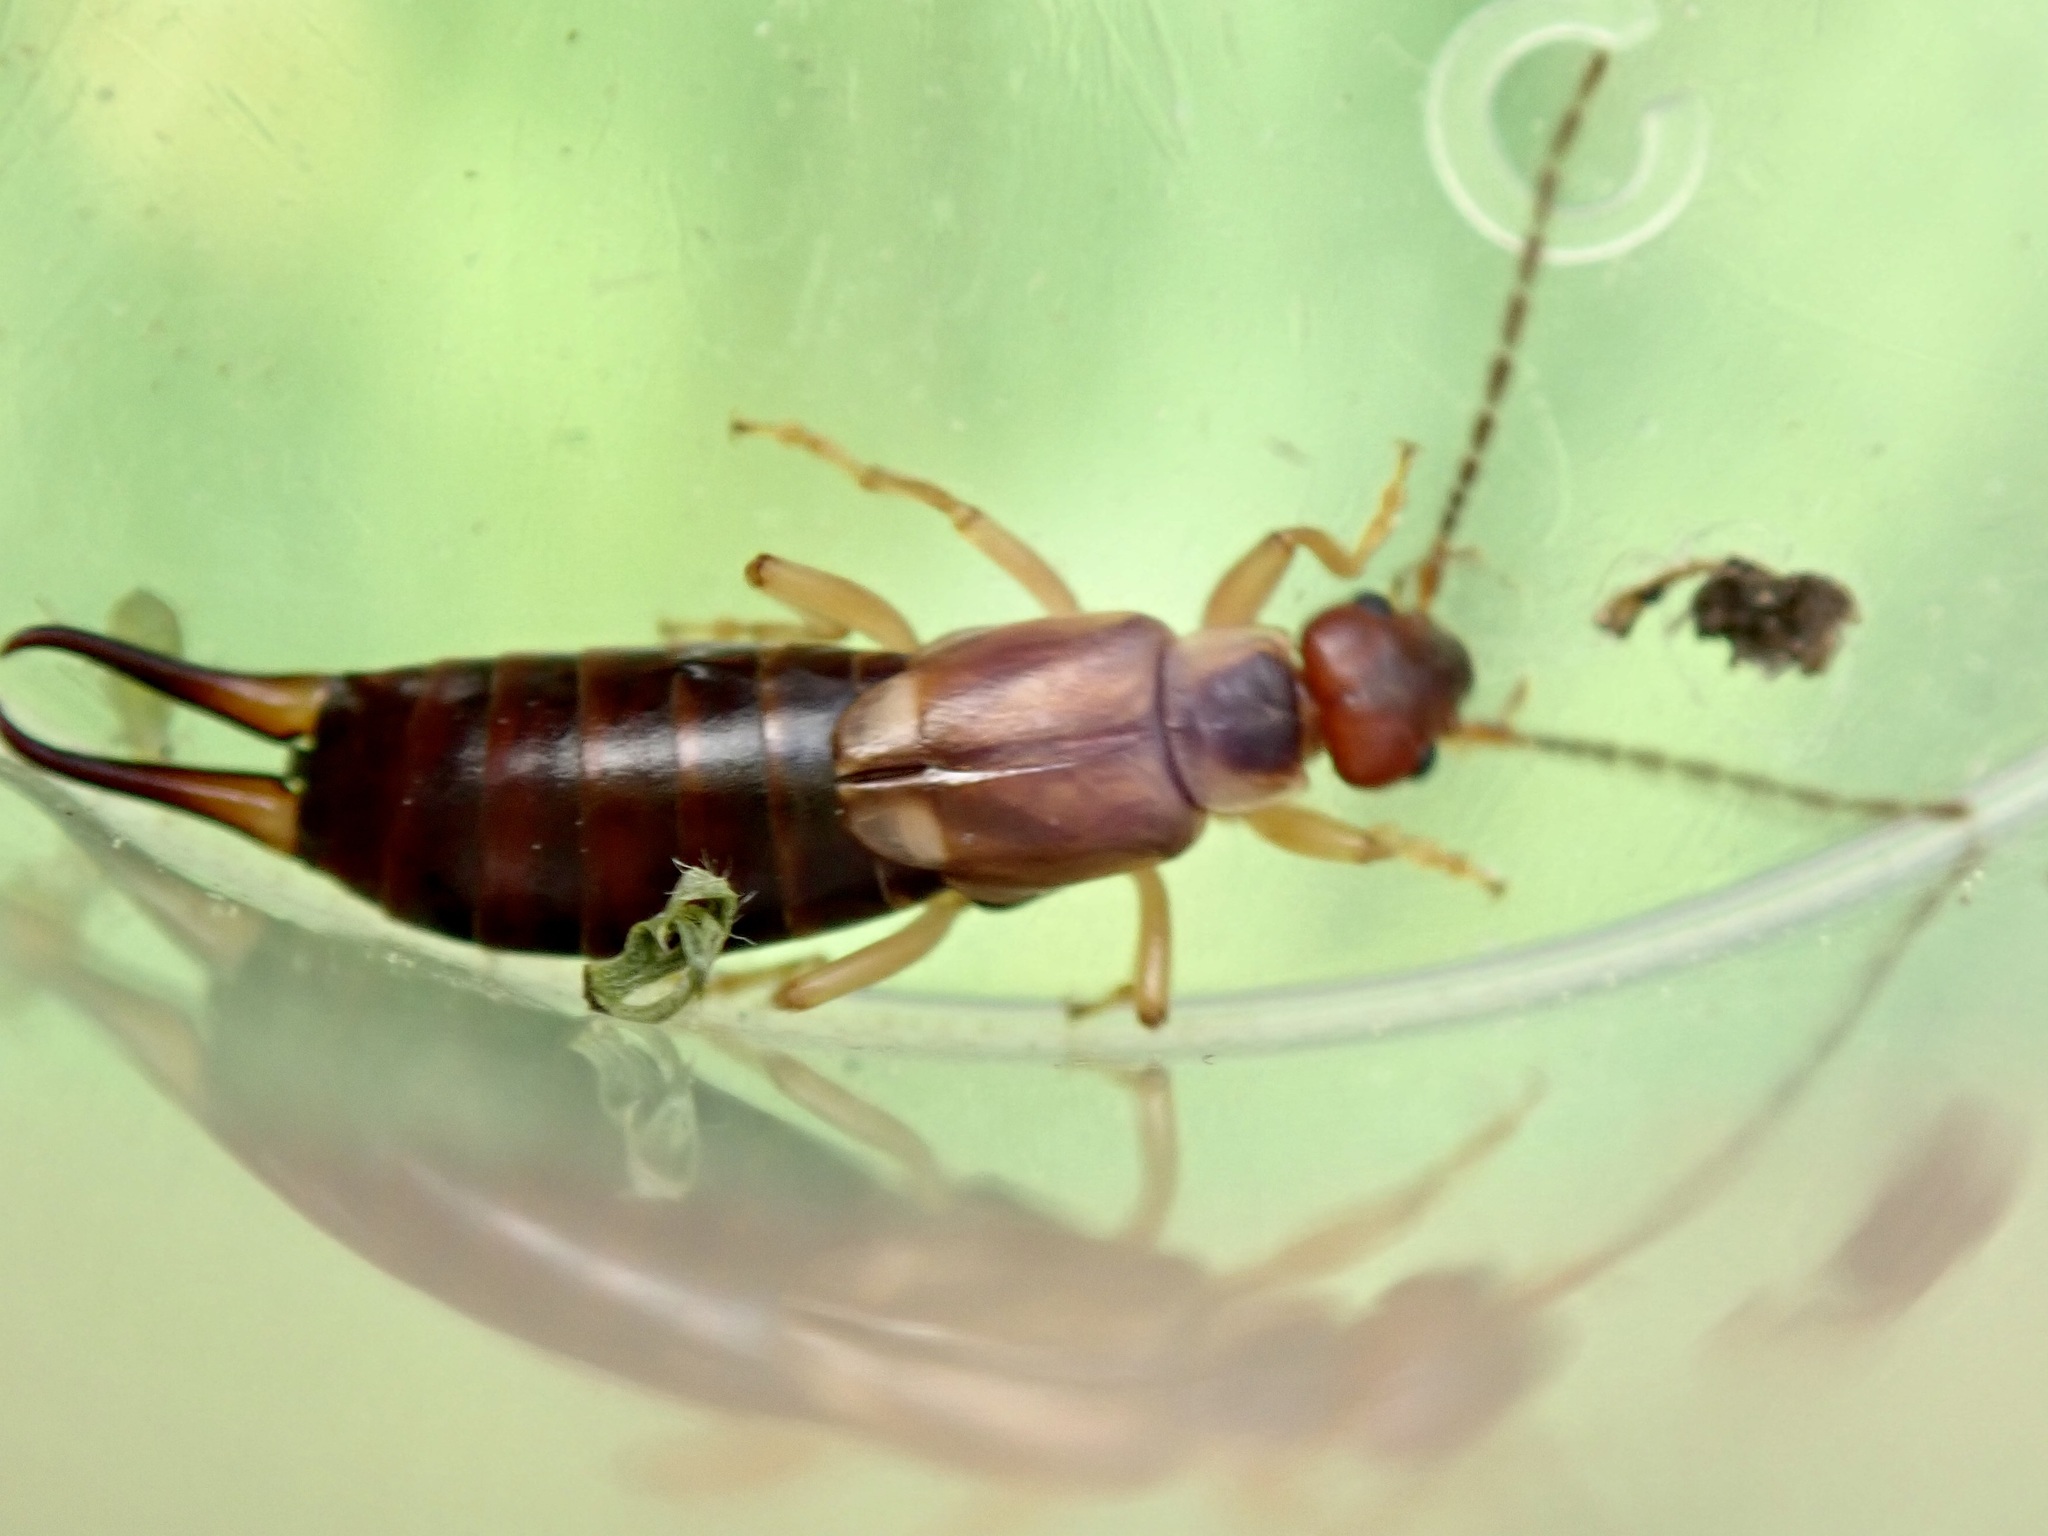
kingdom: Animalia
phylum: Arthropoda
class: Insecta
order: Dermaptera
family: Forficulidae
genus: Forficula
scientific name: Forficula
